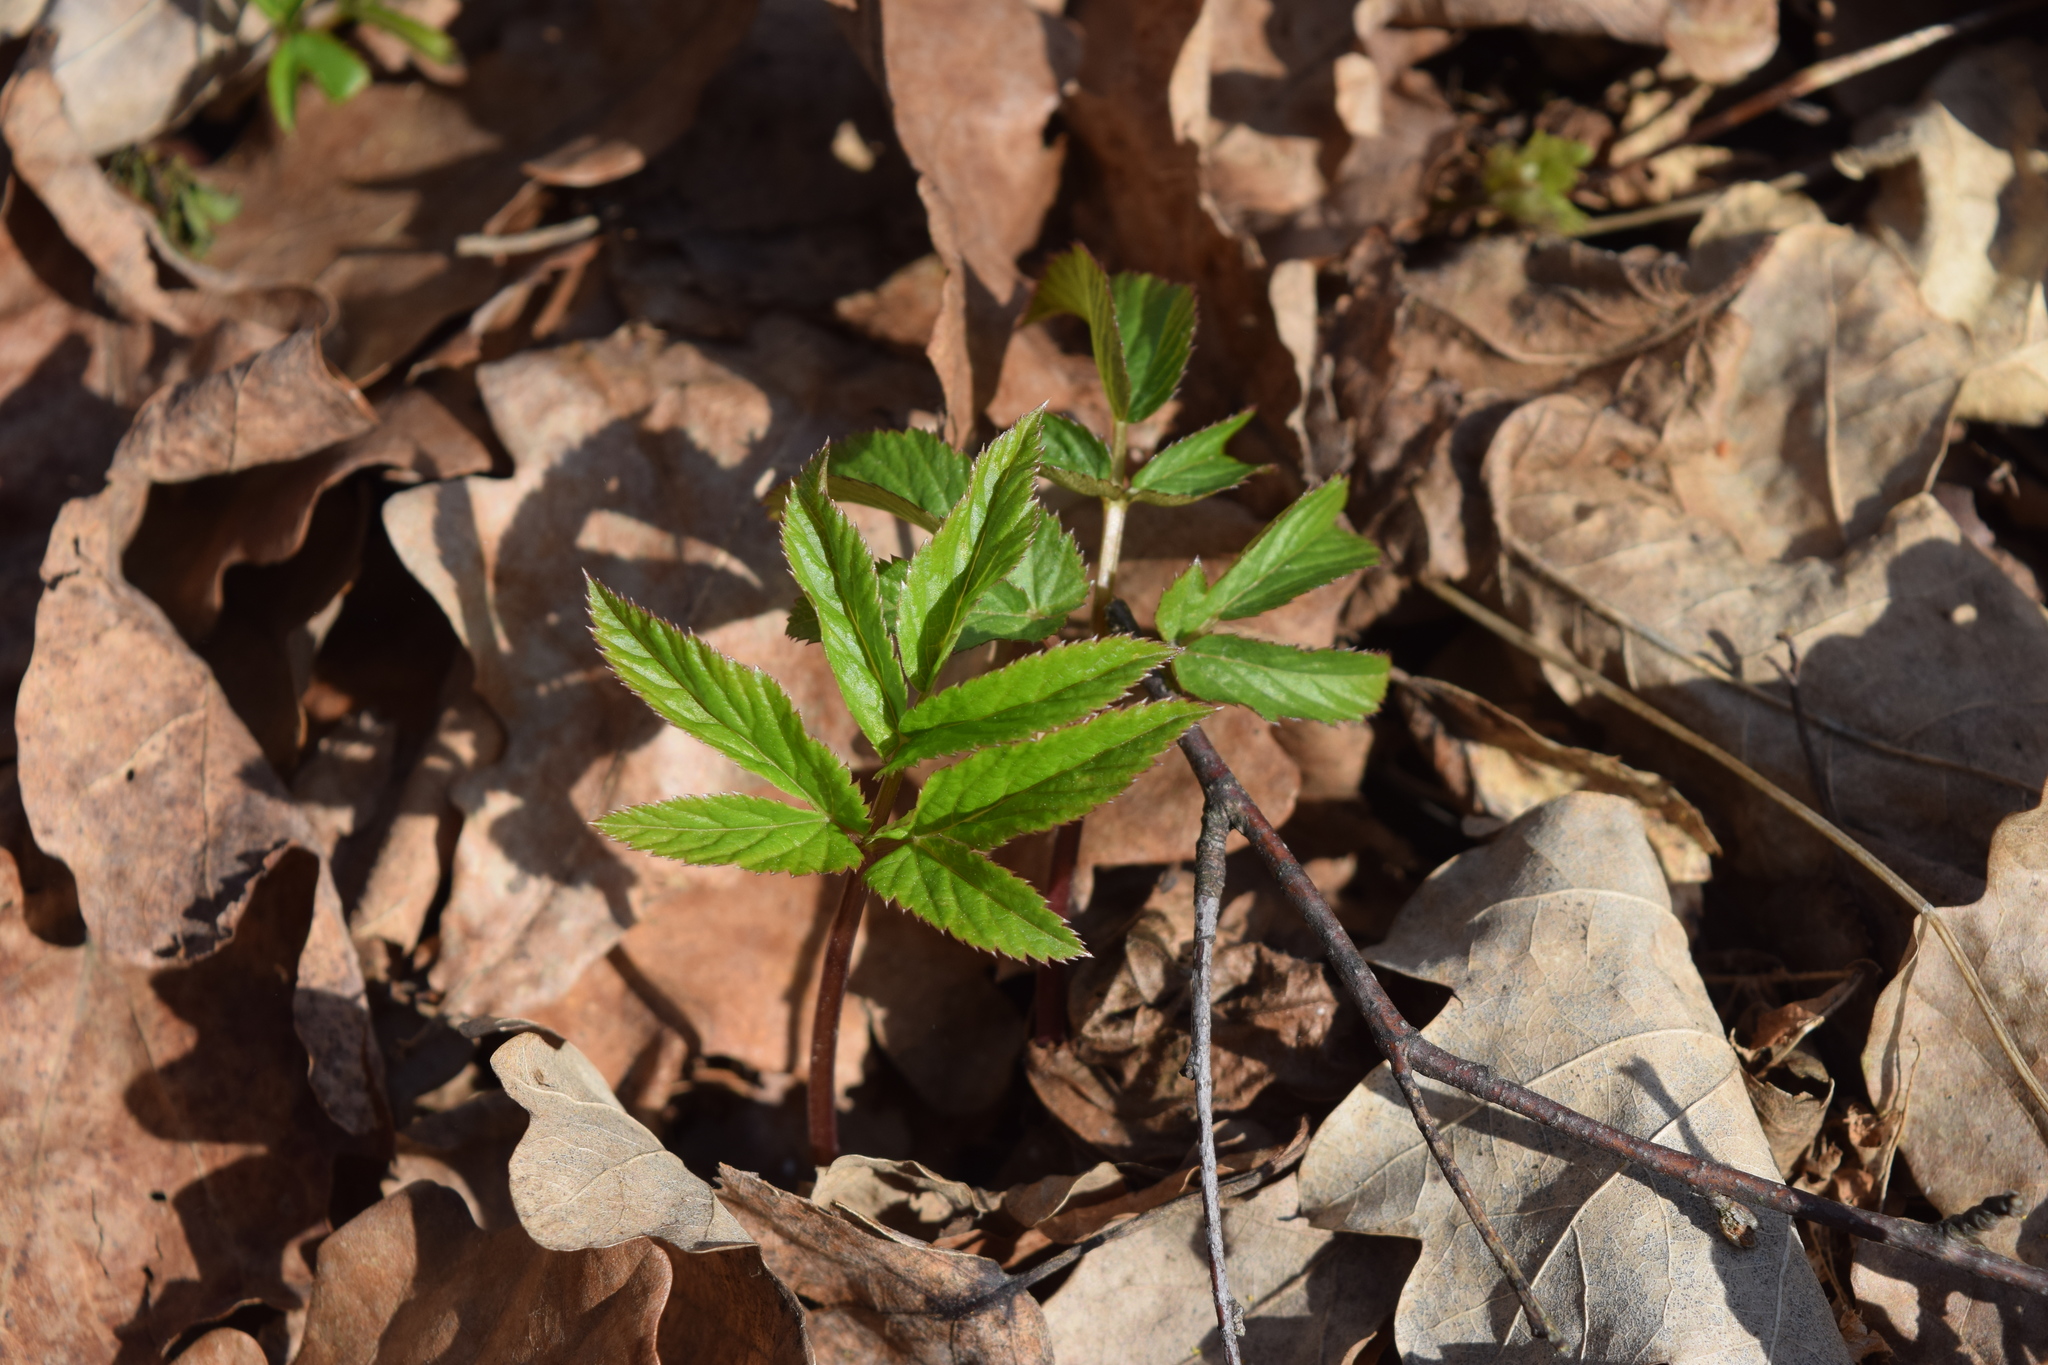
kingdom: Plantae
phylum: Tracheophyta
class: Magnoliopsida
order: Apiales
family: Apiaceae
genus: Aegopodium
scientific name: Aegopodium podagraria
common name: Ground-elder
